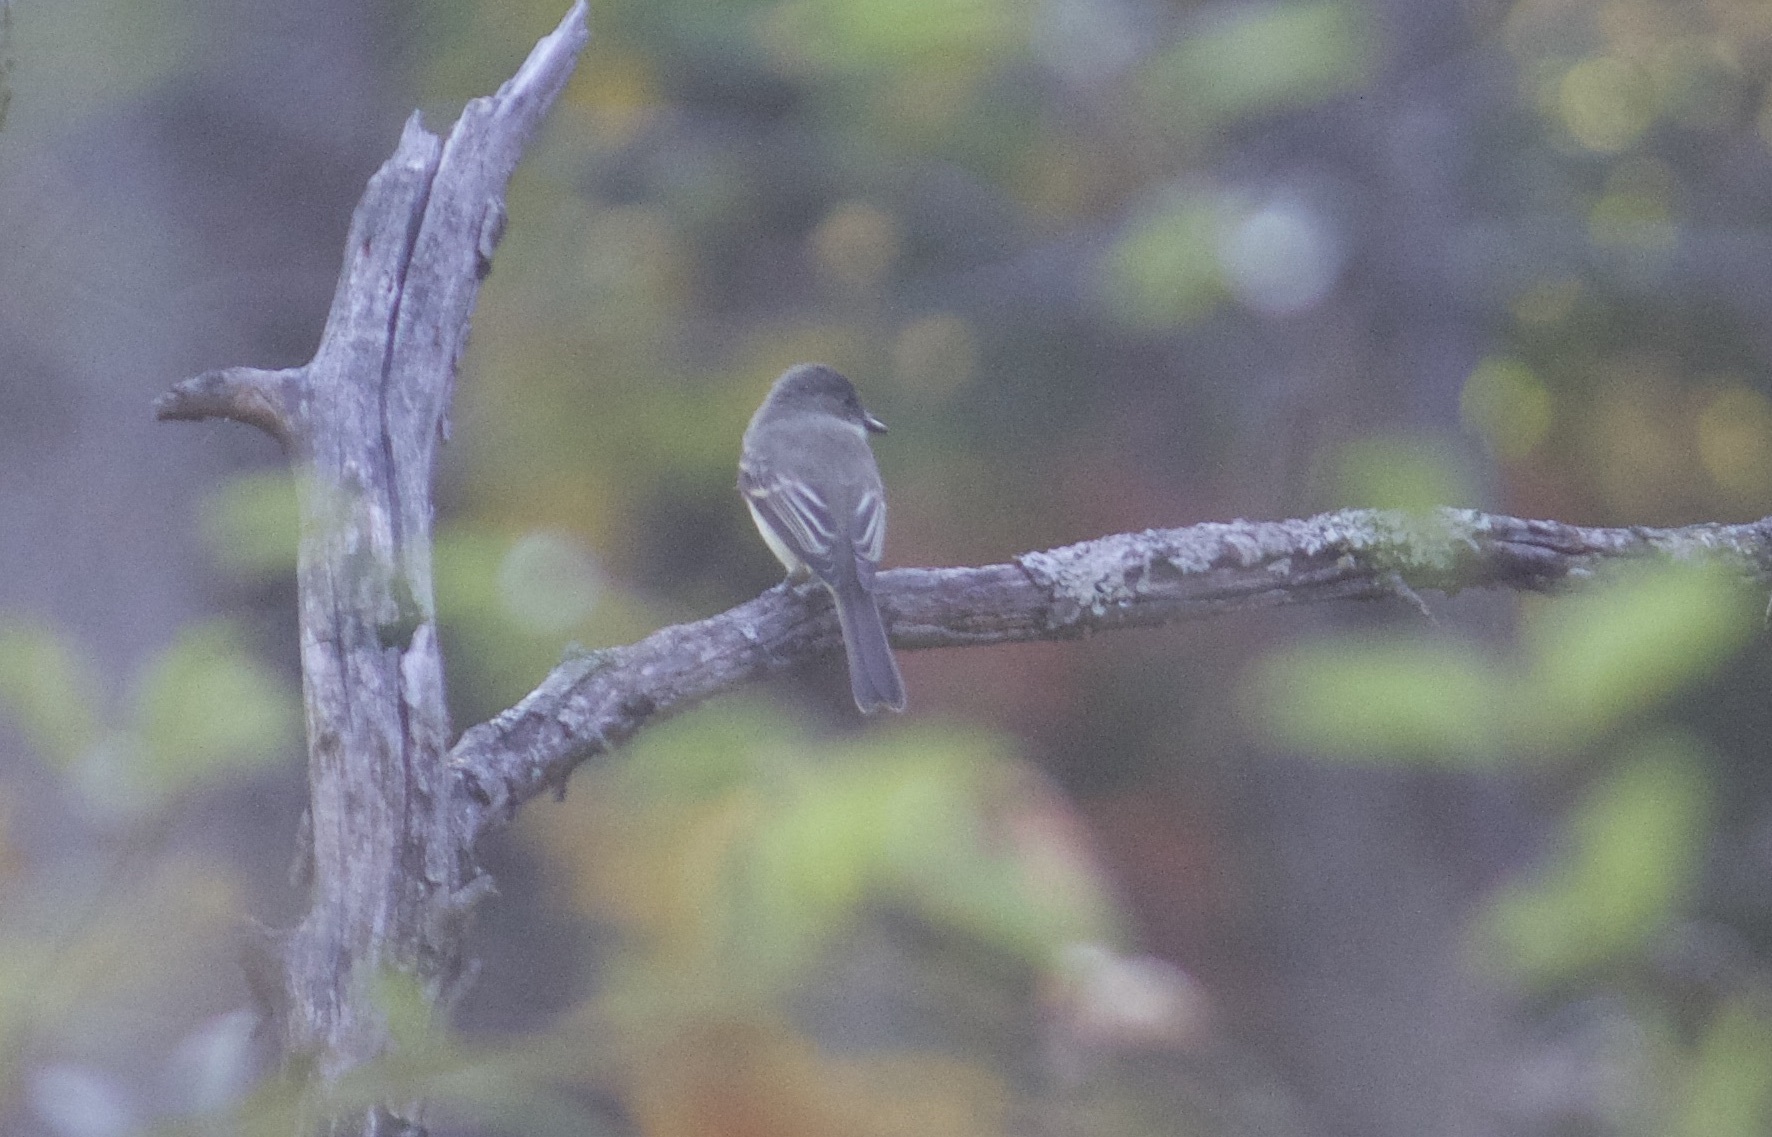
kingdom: Animalia
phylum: Chordata
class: Aves
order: Passeriformes
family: Tyrannidae
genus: Sayornis
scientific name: Sayornis phoebe
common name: Eastern phoebe
